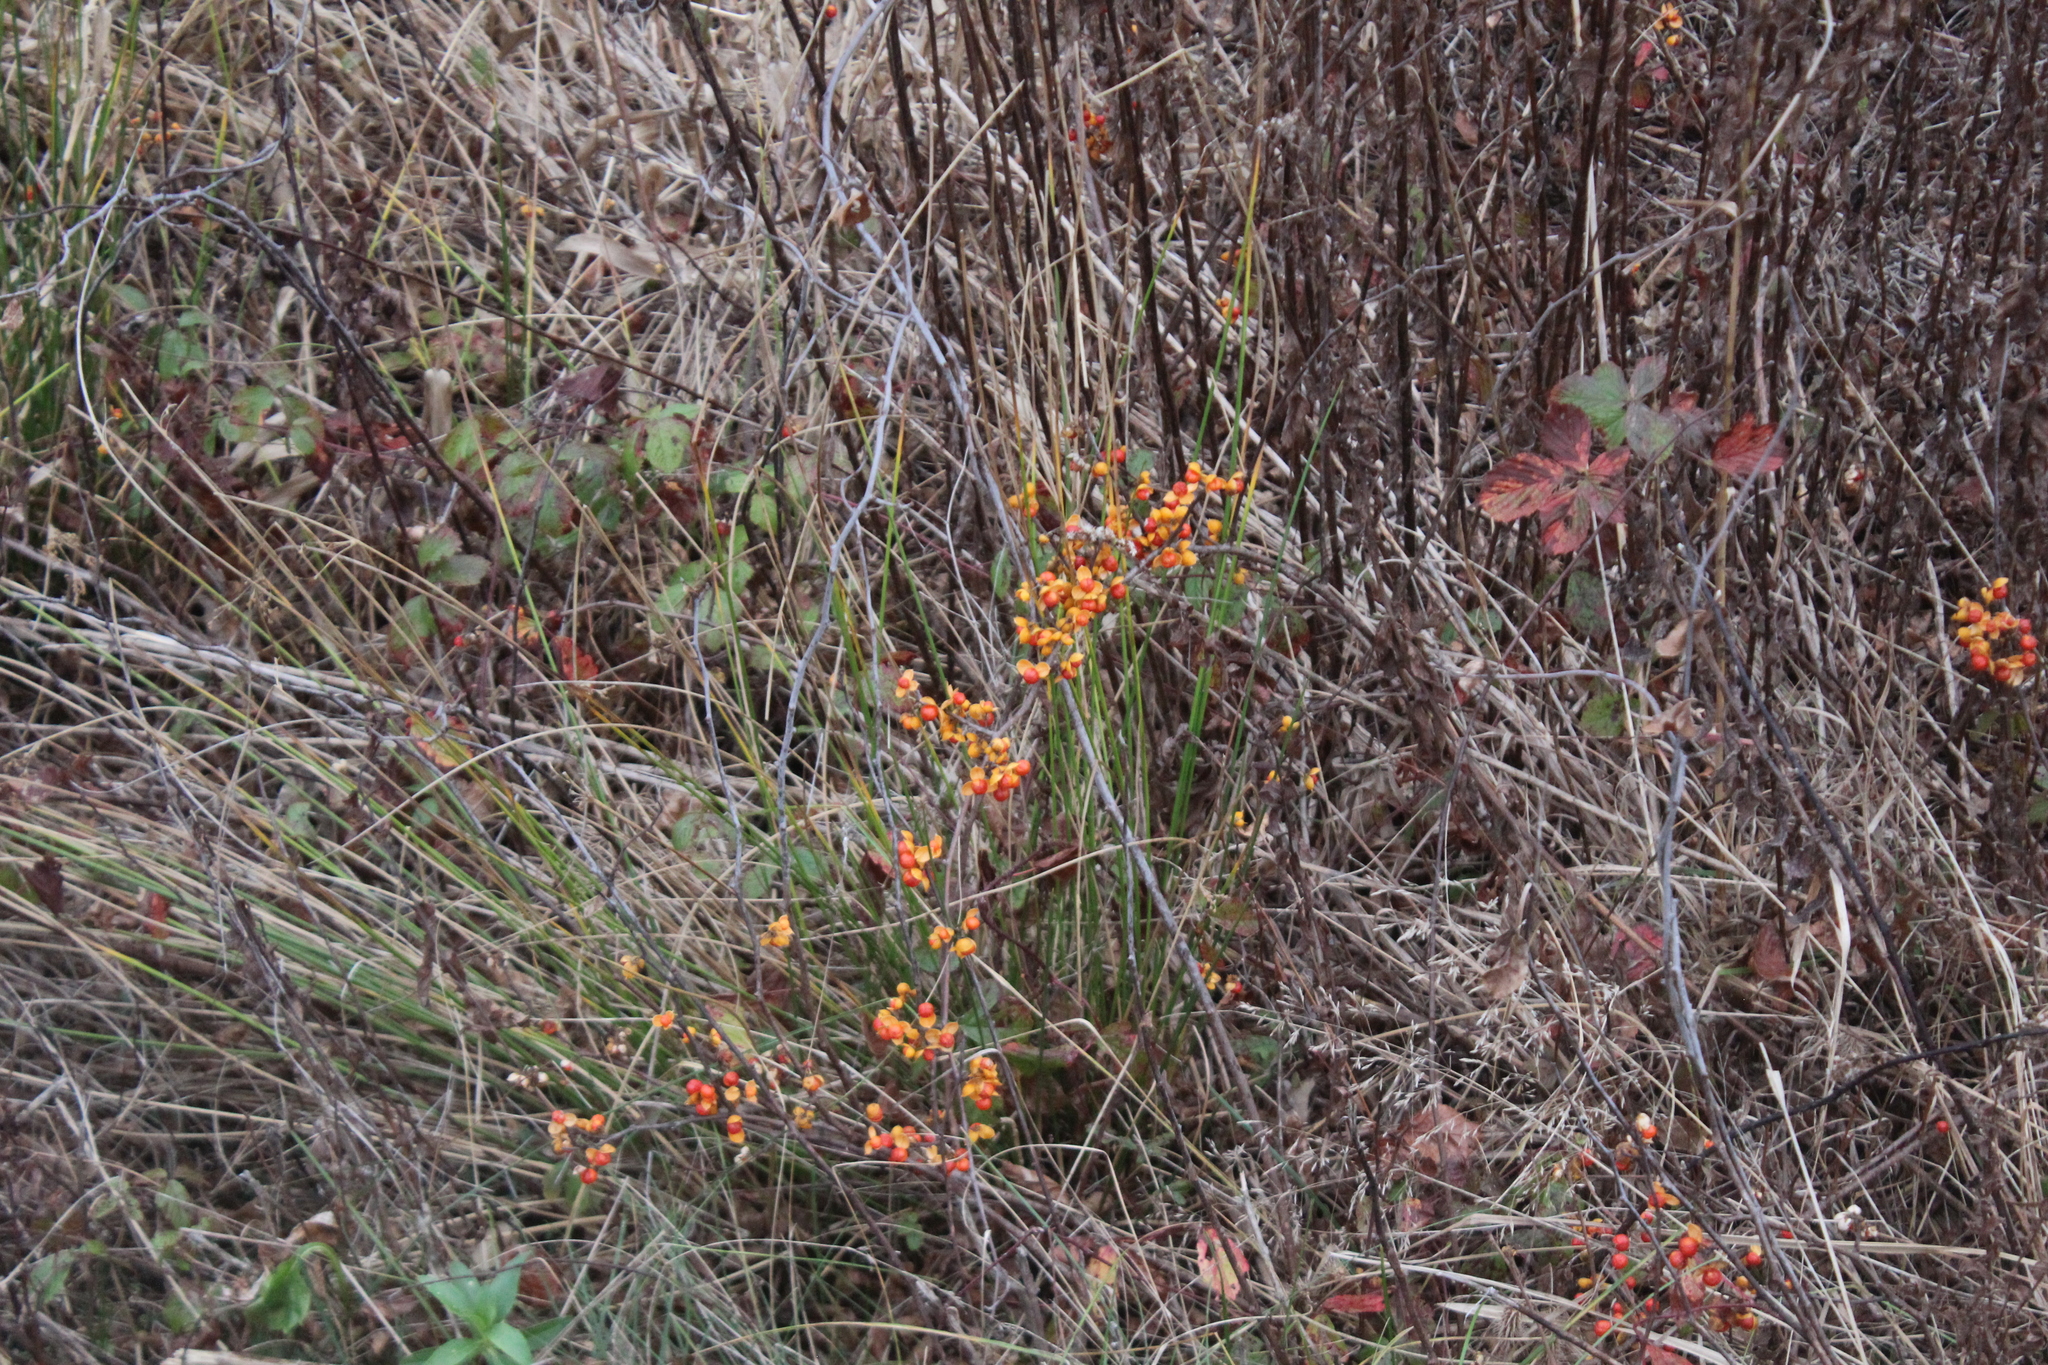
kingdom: Plantae
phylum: Tracheophyta
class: Magnoliopsida
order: Celastrales
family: Celastraceae
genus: Celastrus
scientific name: Celastrus orbiculatus
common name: Oriental bittersweet
